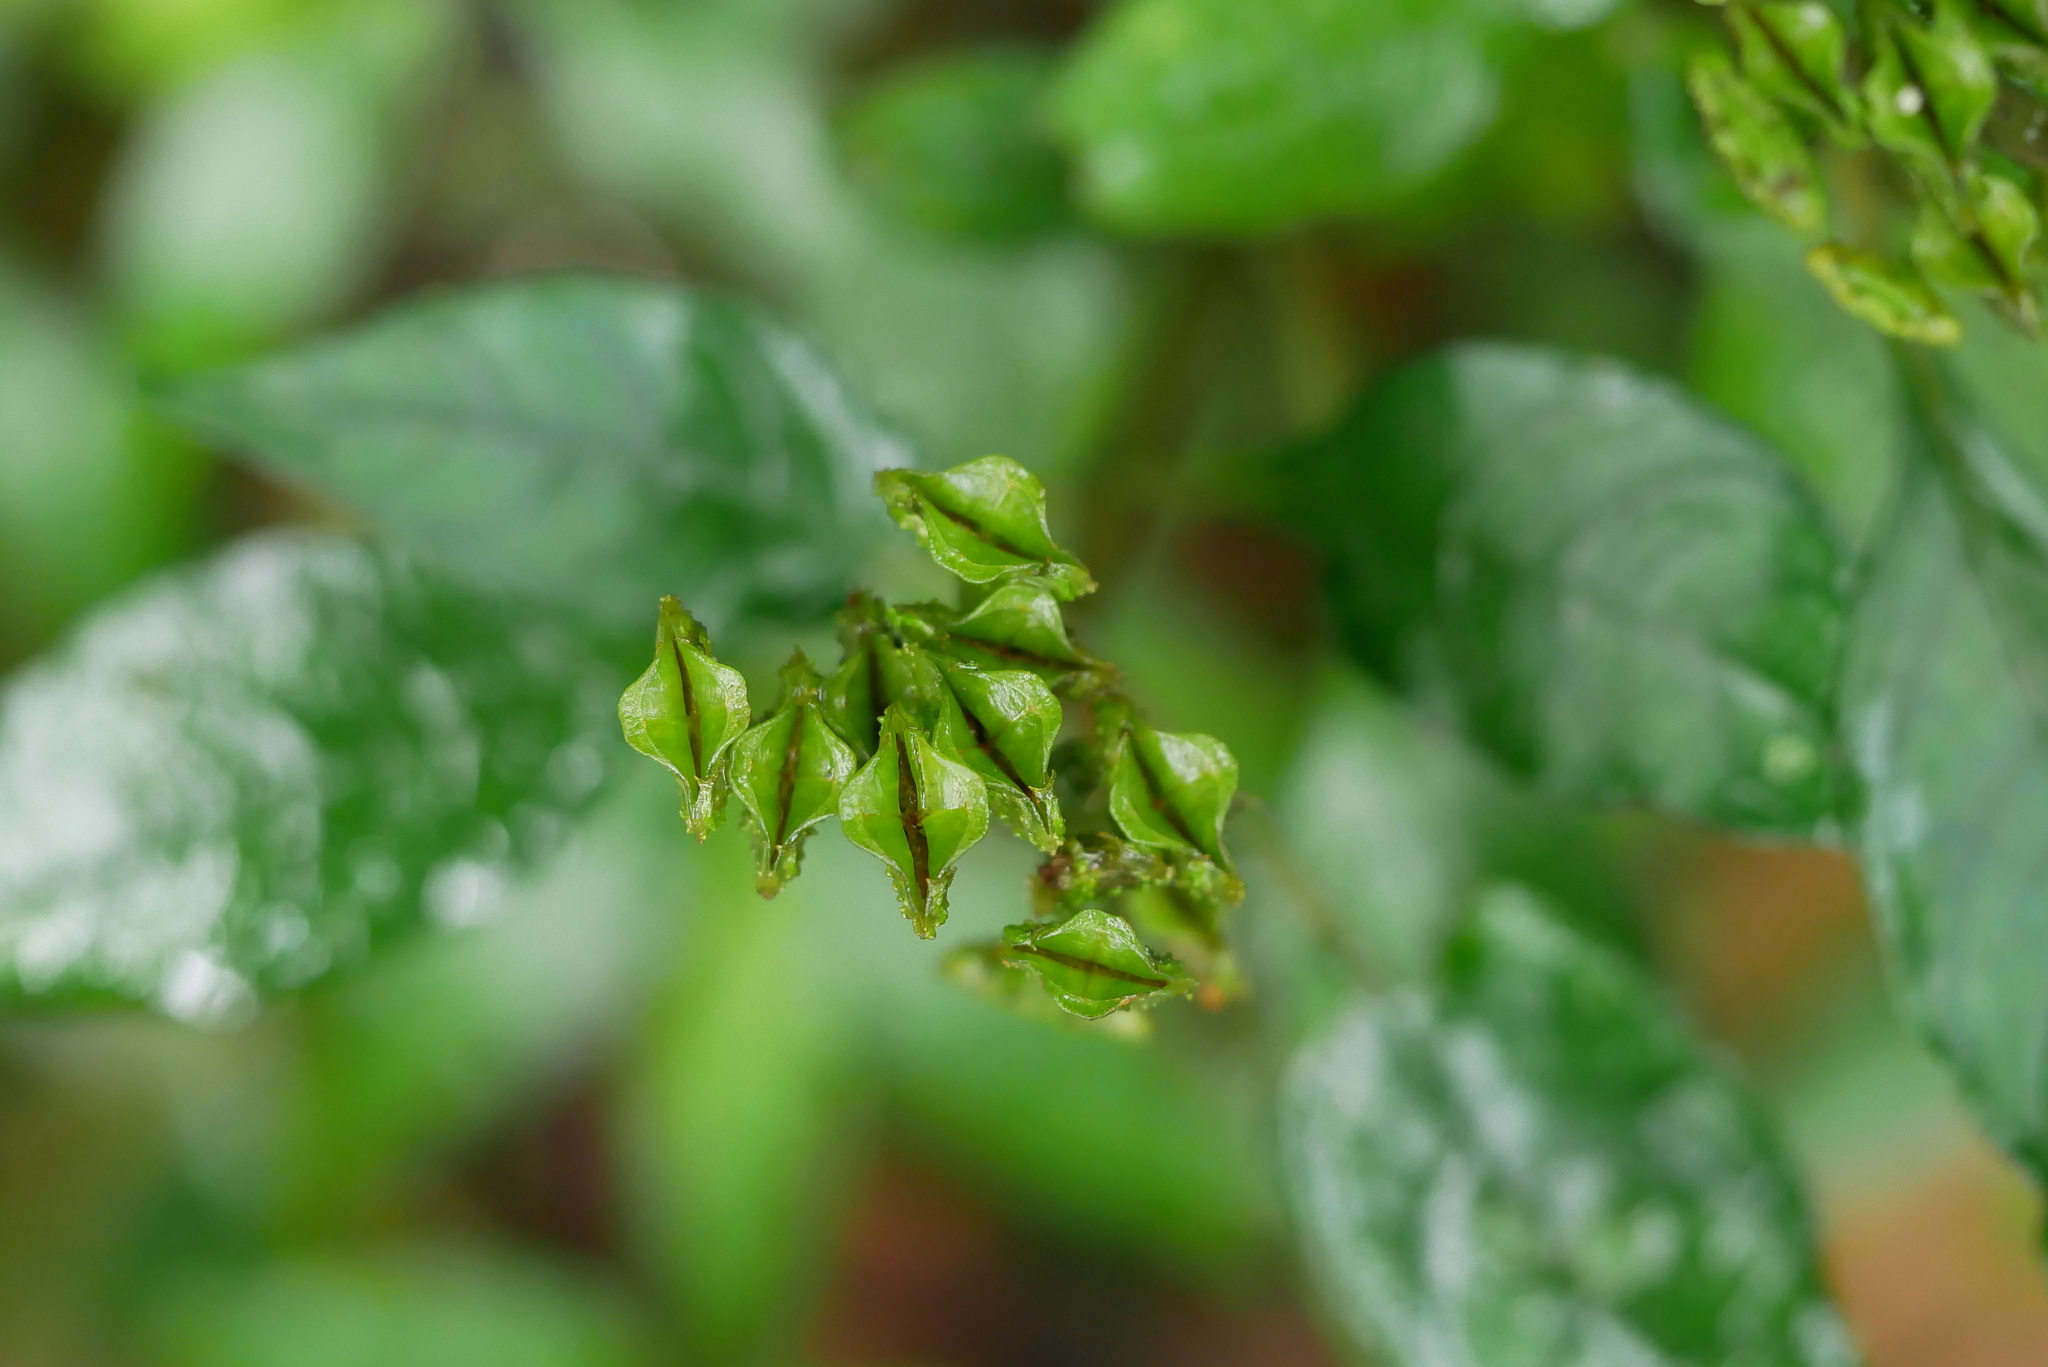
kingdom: Plantae
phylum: Tracheophyta
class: Magnoliopsida
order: Gentianales
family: Rubiaceae
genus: Ophiorrhiza
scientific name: Ophiorrhiza japonica
